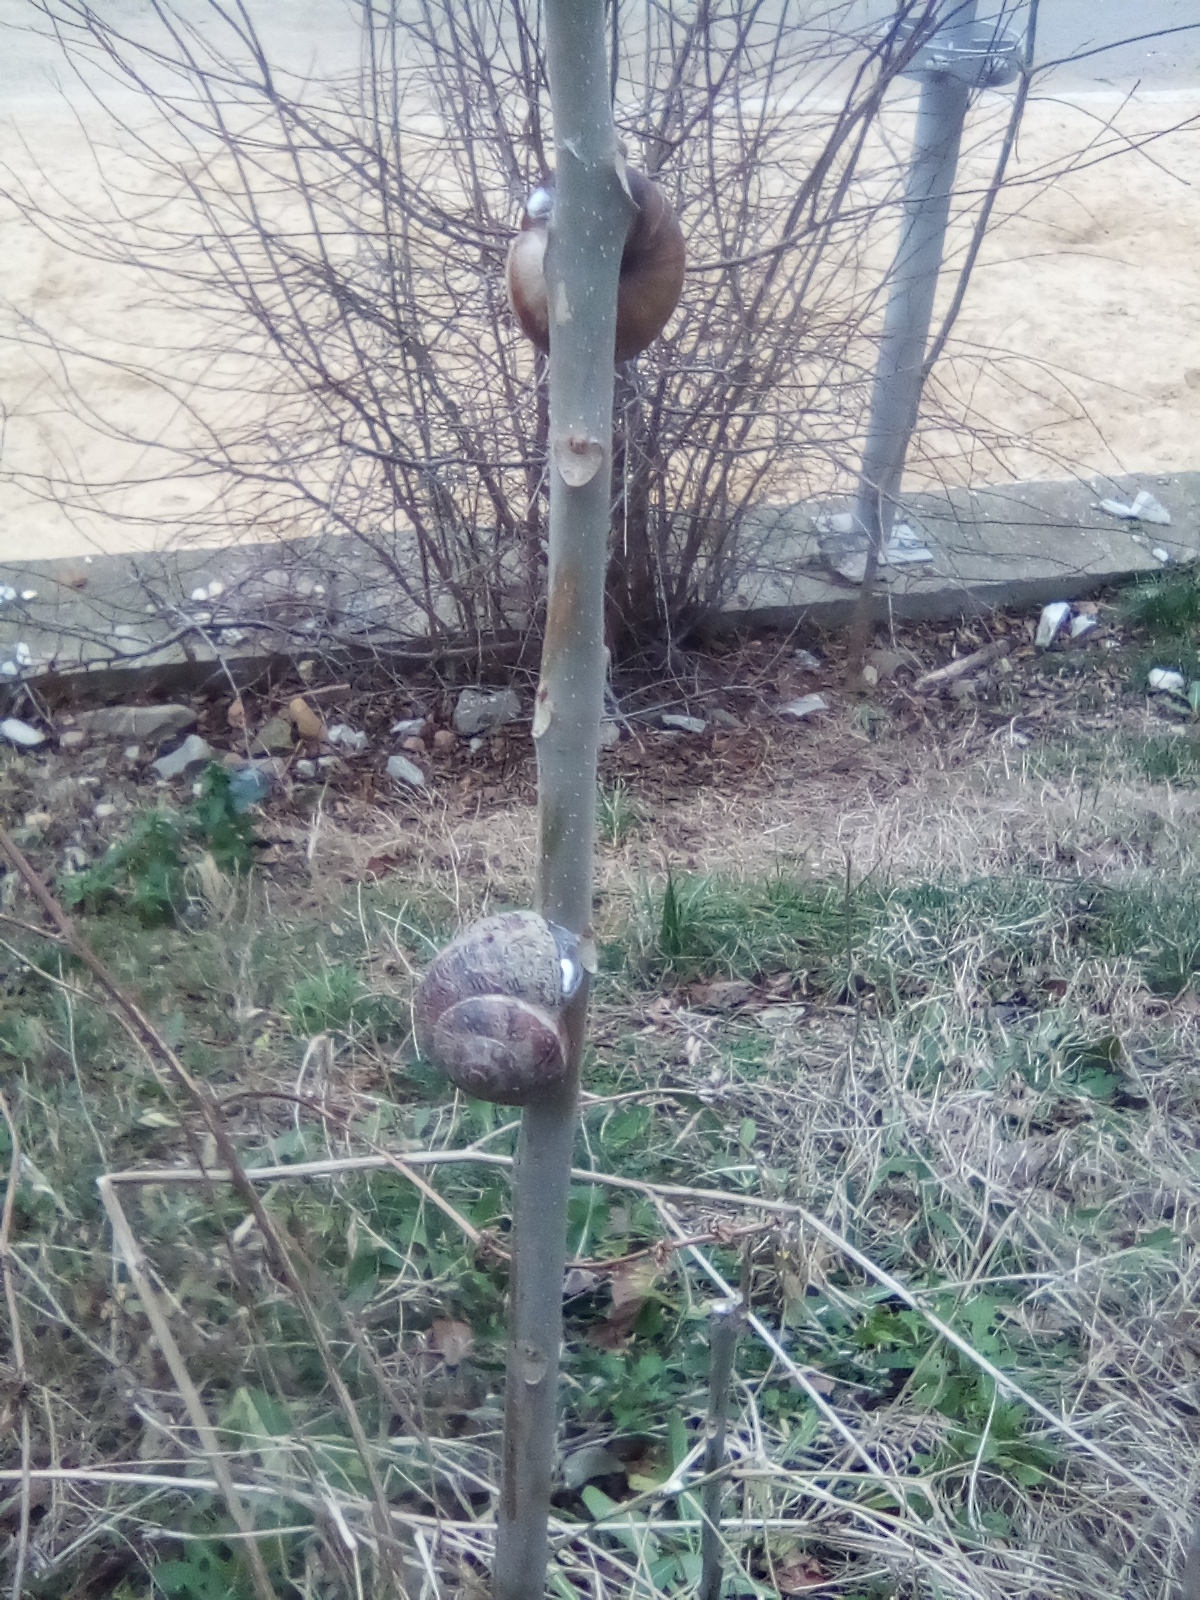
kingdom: Animalia
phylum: Mollusca
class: Gastropoda
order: Stylommatophora
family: Helicidae
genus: Helix
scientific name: Helix lucorum
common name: Turkish snail
